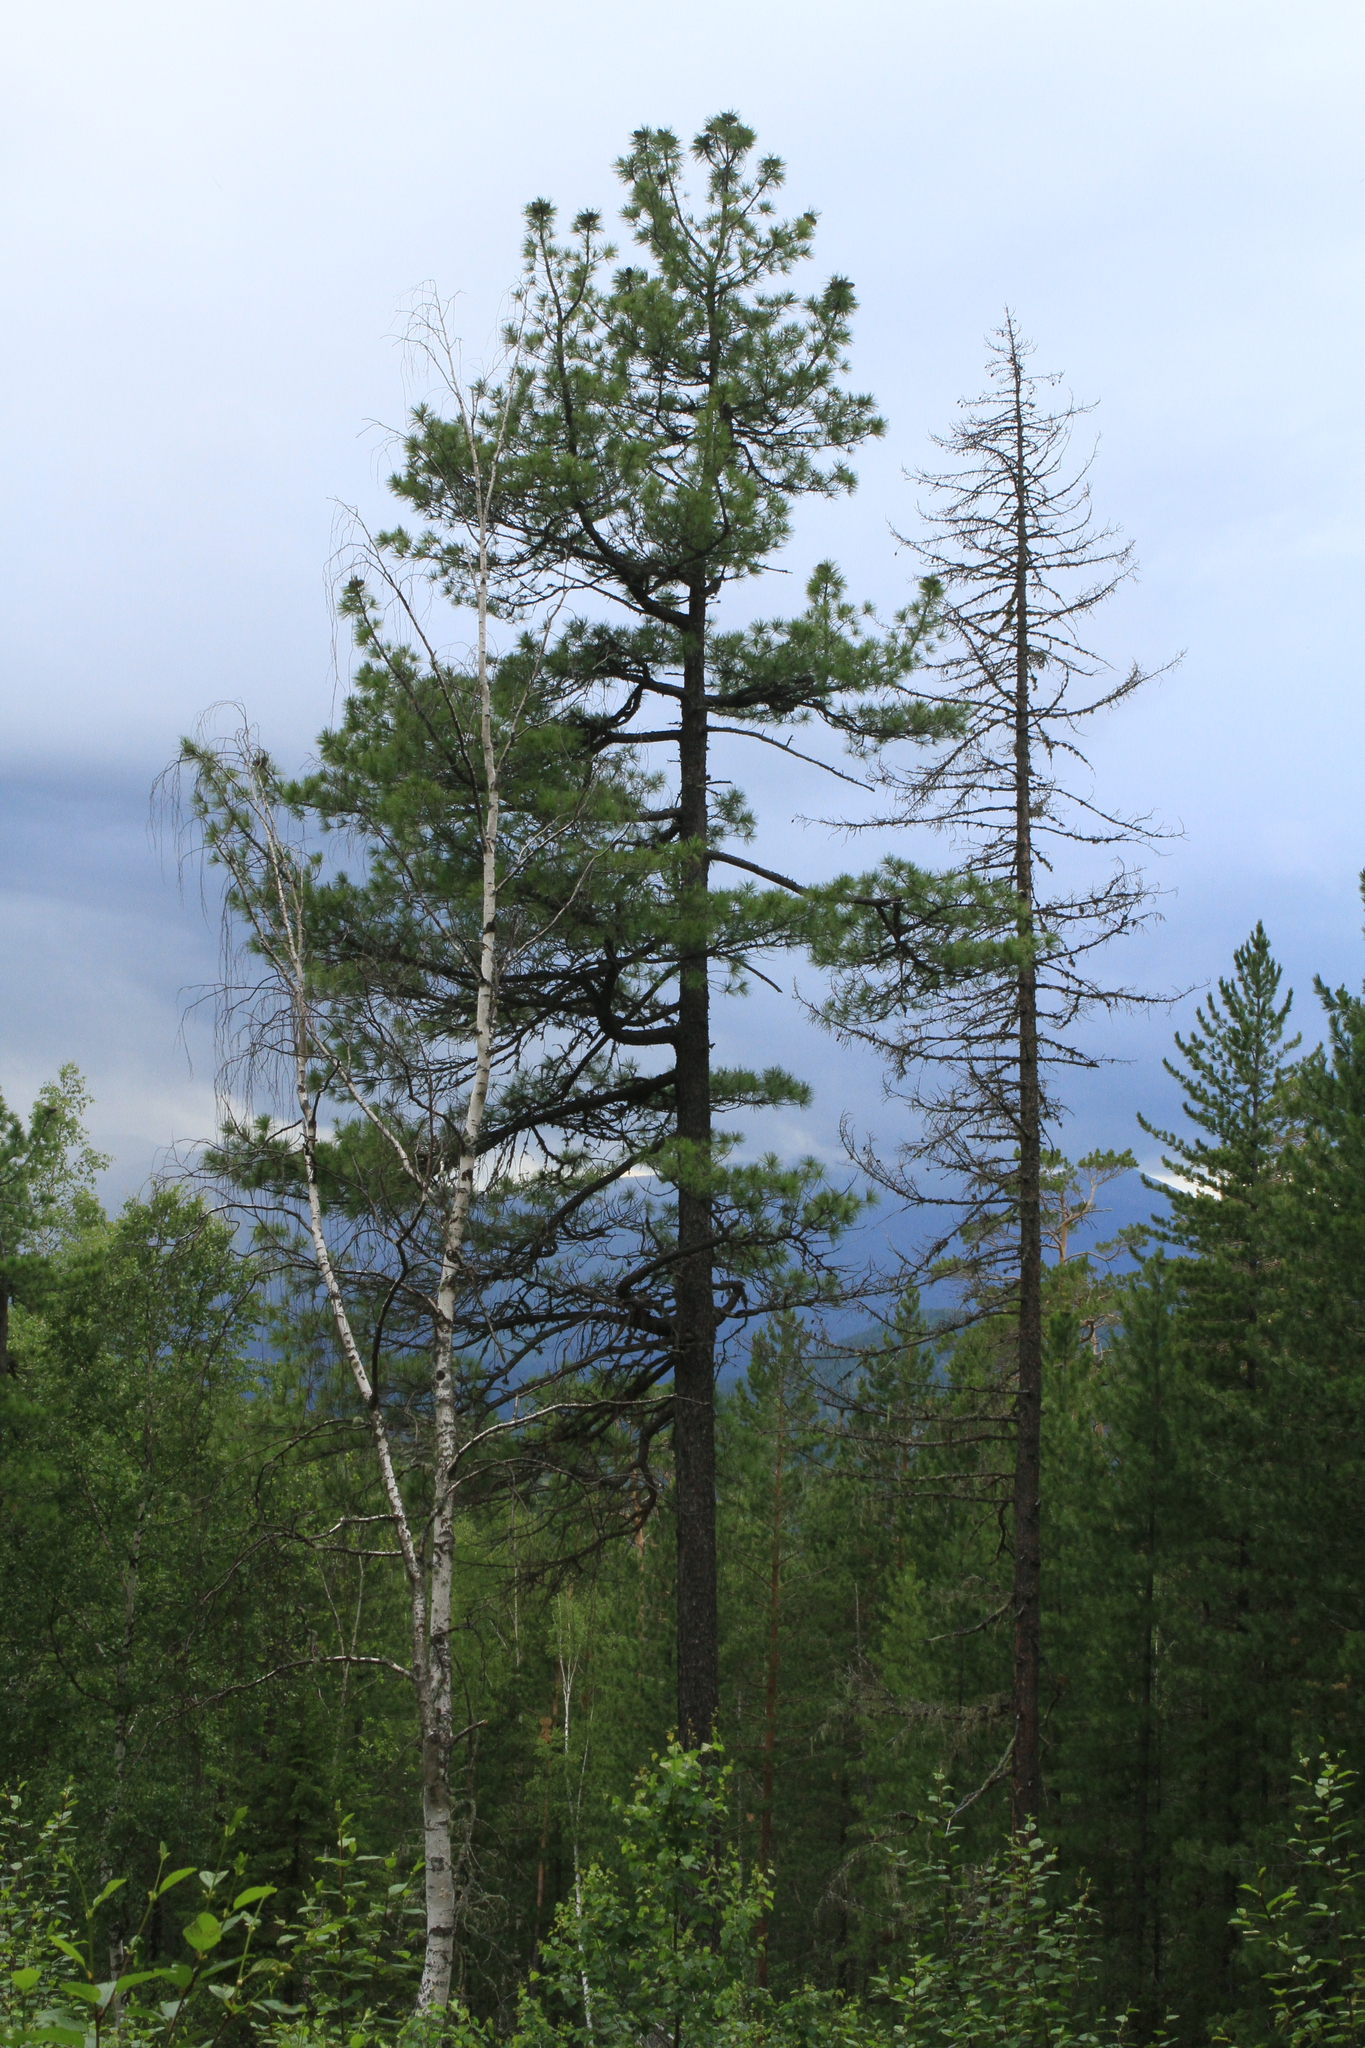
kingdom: Plantae
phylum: Tracheophyta
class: Pinopsida
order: Pinales
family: Pinaceae
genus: Pinus
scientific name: Pinus sibirica
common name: Siberian pine
